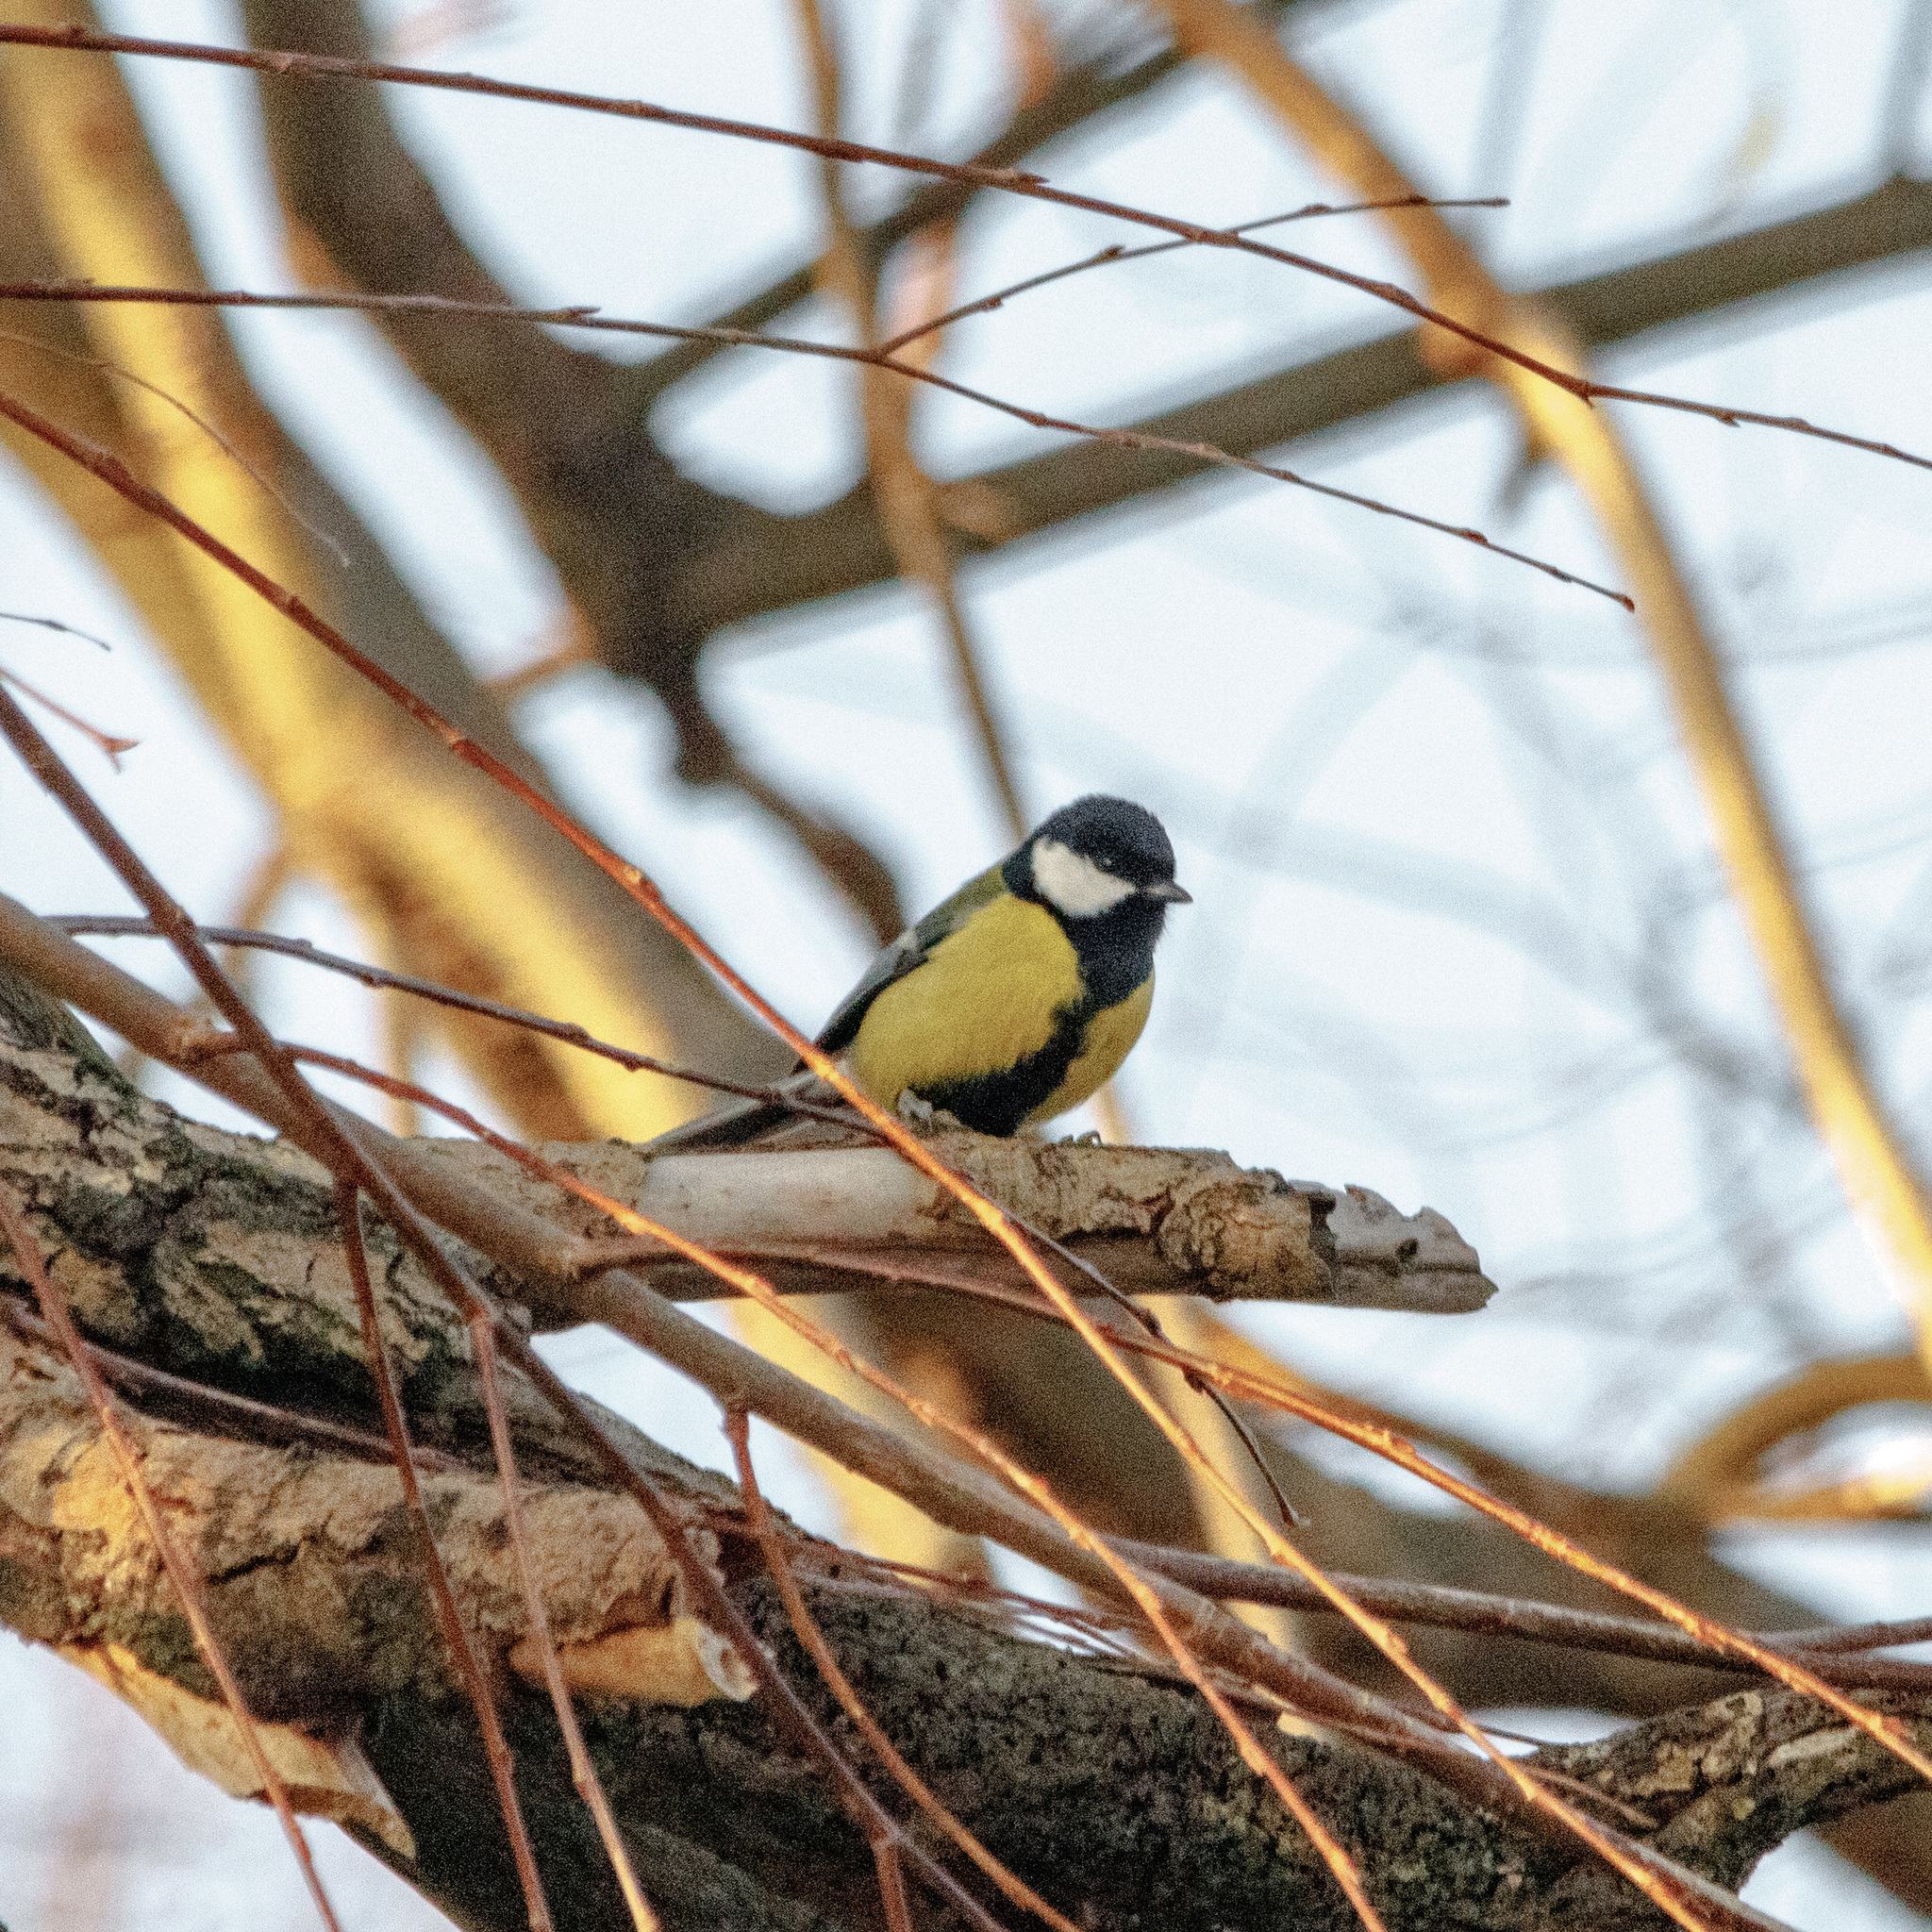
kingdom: Animalia
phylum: Chordata
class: Aves
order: Passeriformes
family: Paridae
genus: Parus
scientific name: Parus major
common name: Great tit
